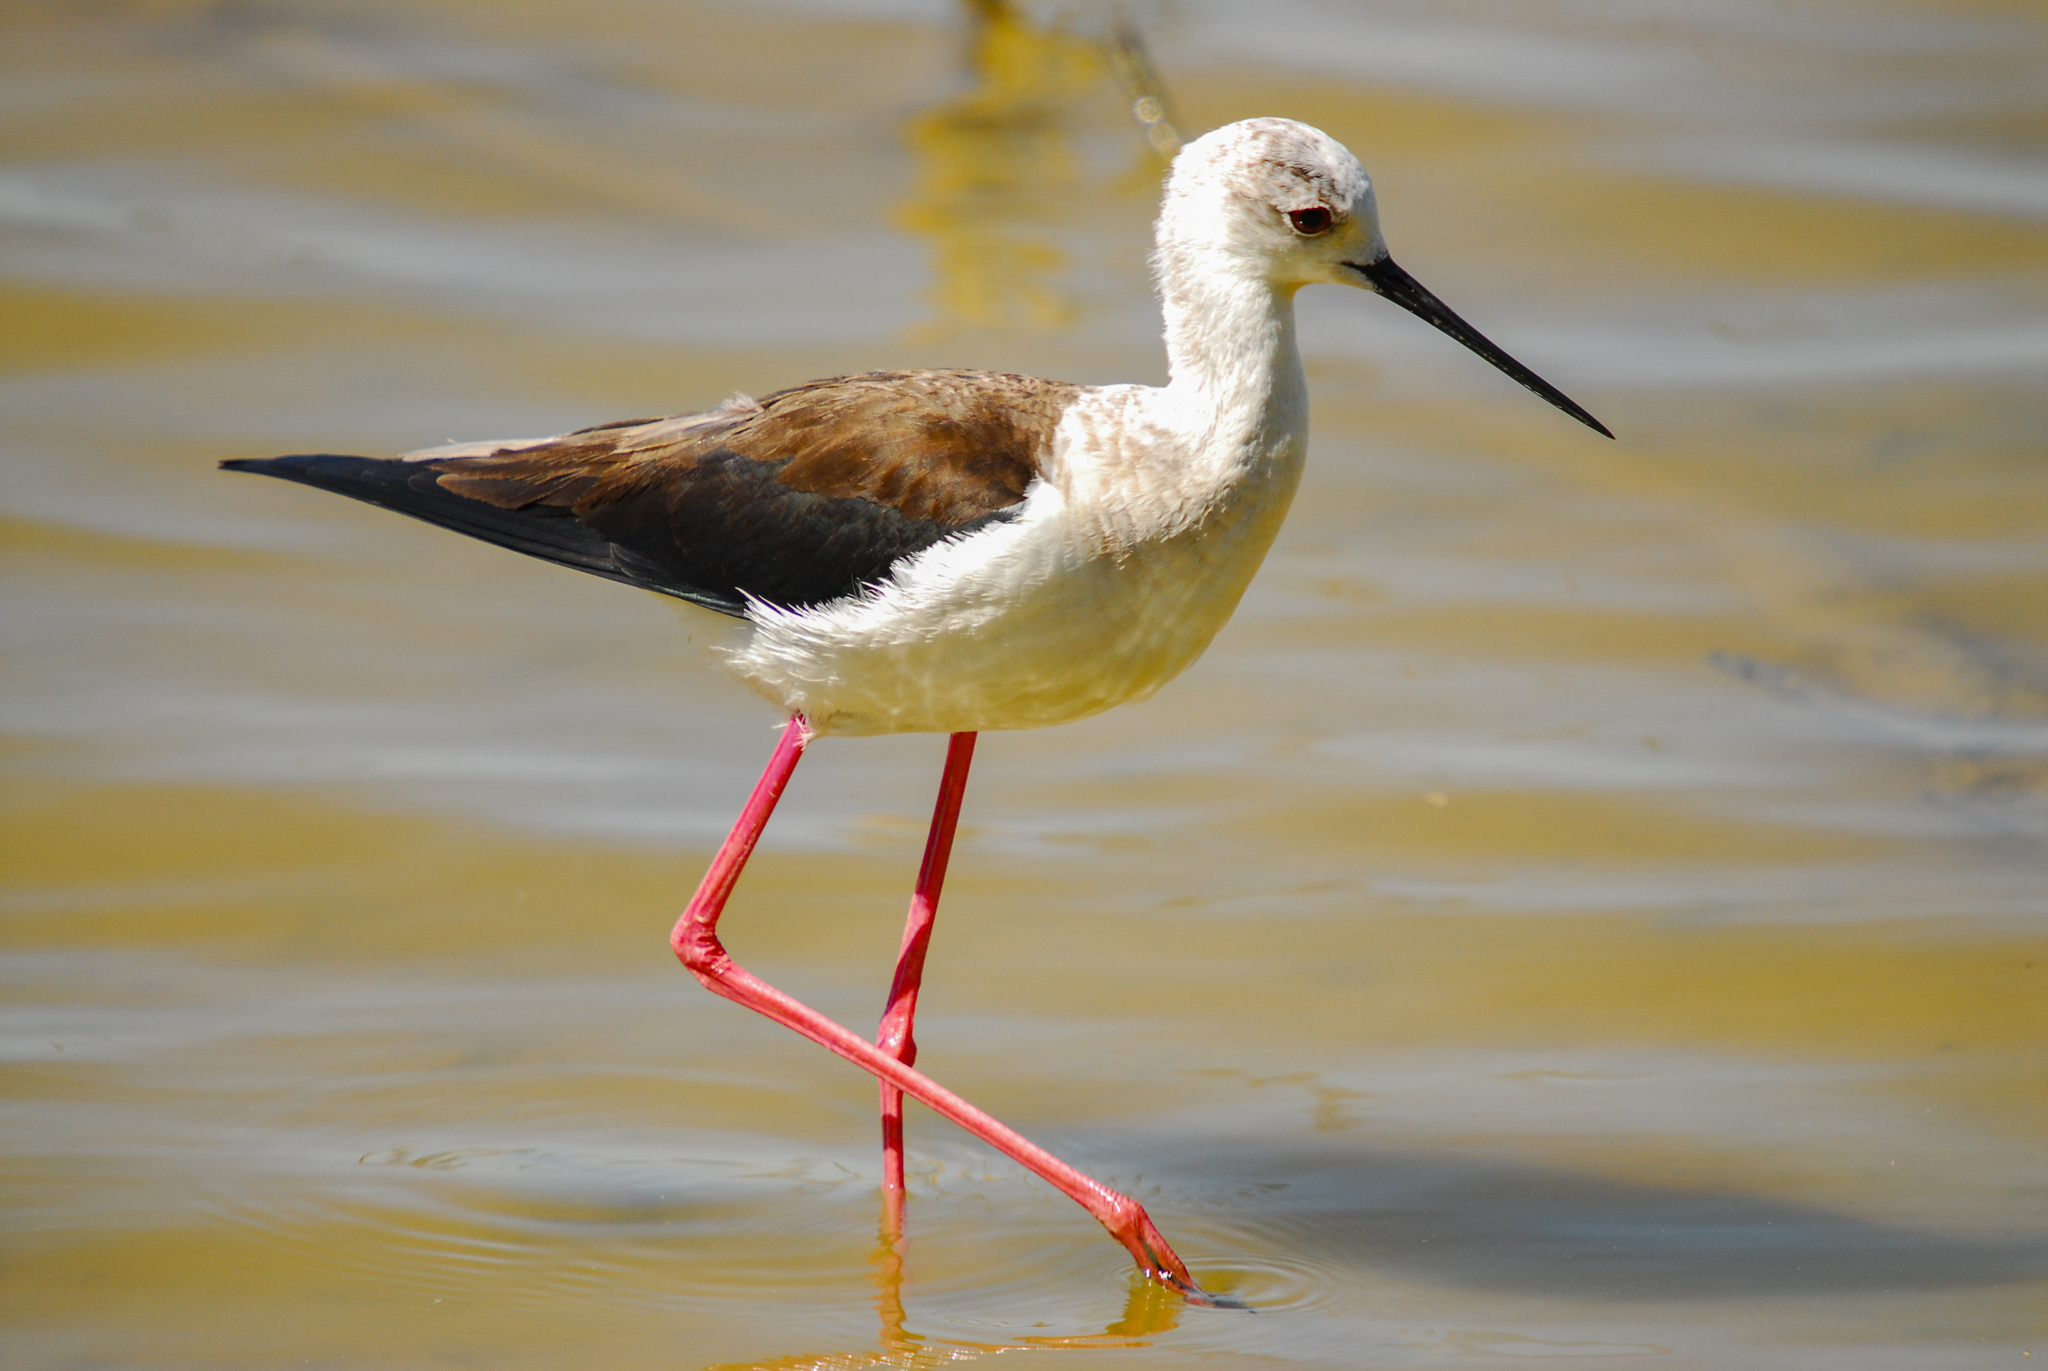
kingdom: Animalia
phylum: Chordata
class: Aves
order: Charadriiformes
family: Recurvirostridae
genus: Himantopus
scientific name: Himantopus himantopus
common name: Black-winged stilt
